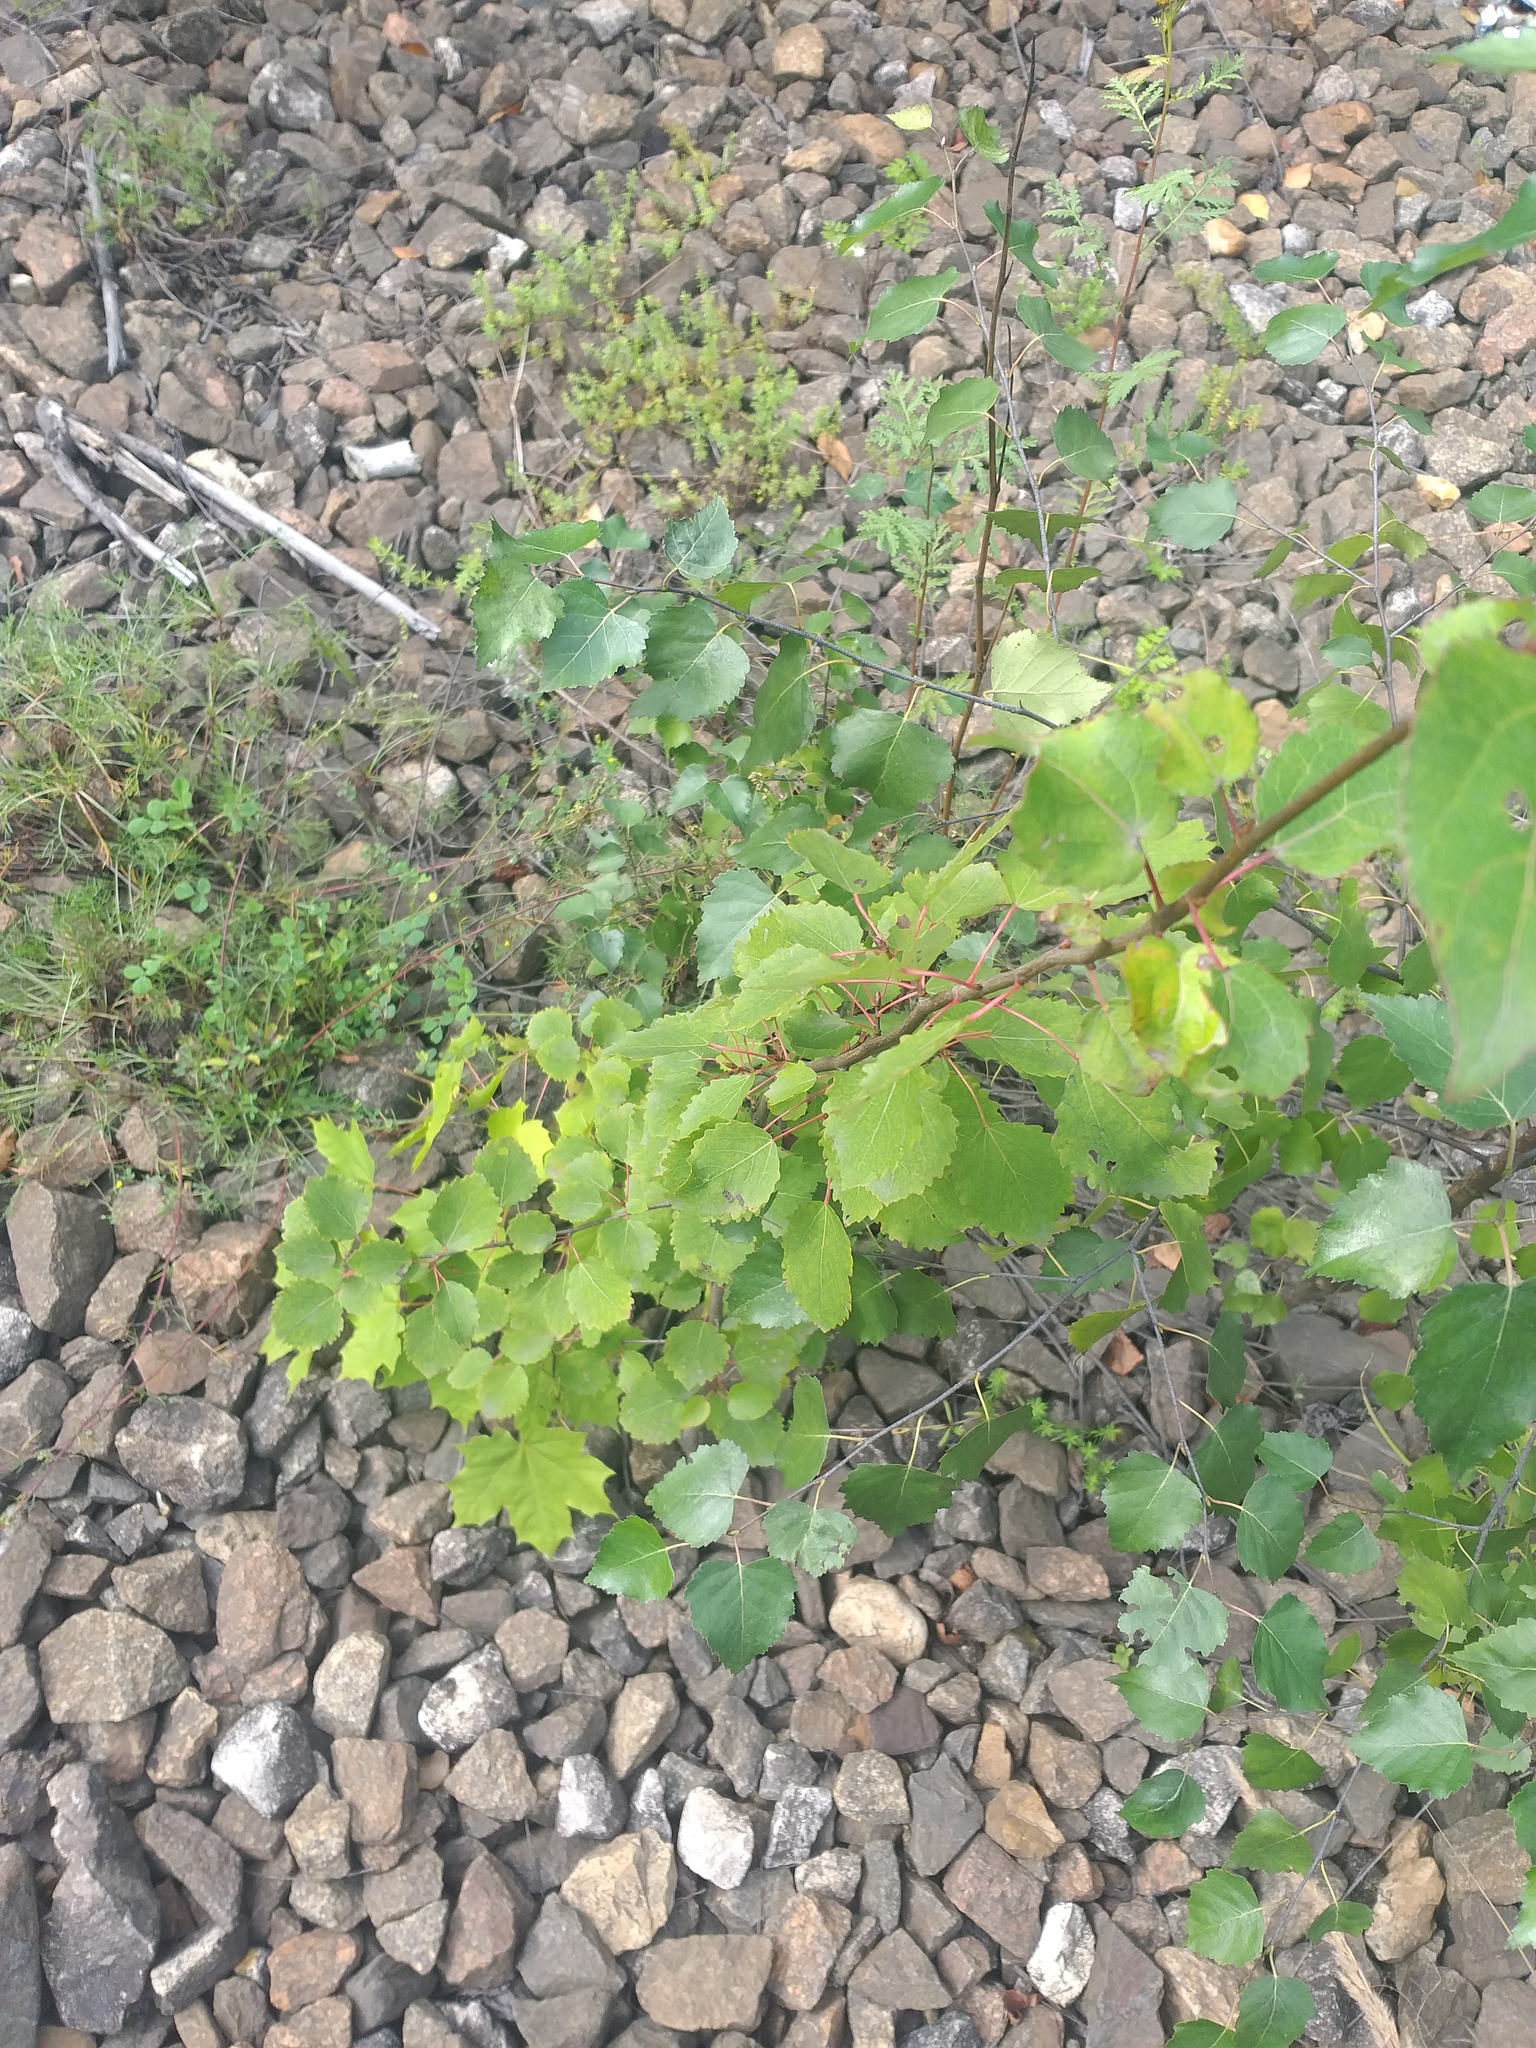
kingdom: Plantae
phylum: Tracheophyta
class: Magnoliopsida
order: Malpighiales
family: Salicaceae
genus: Populus
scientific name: Populus tremula
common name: European aspen
